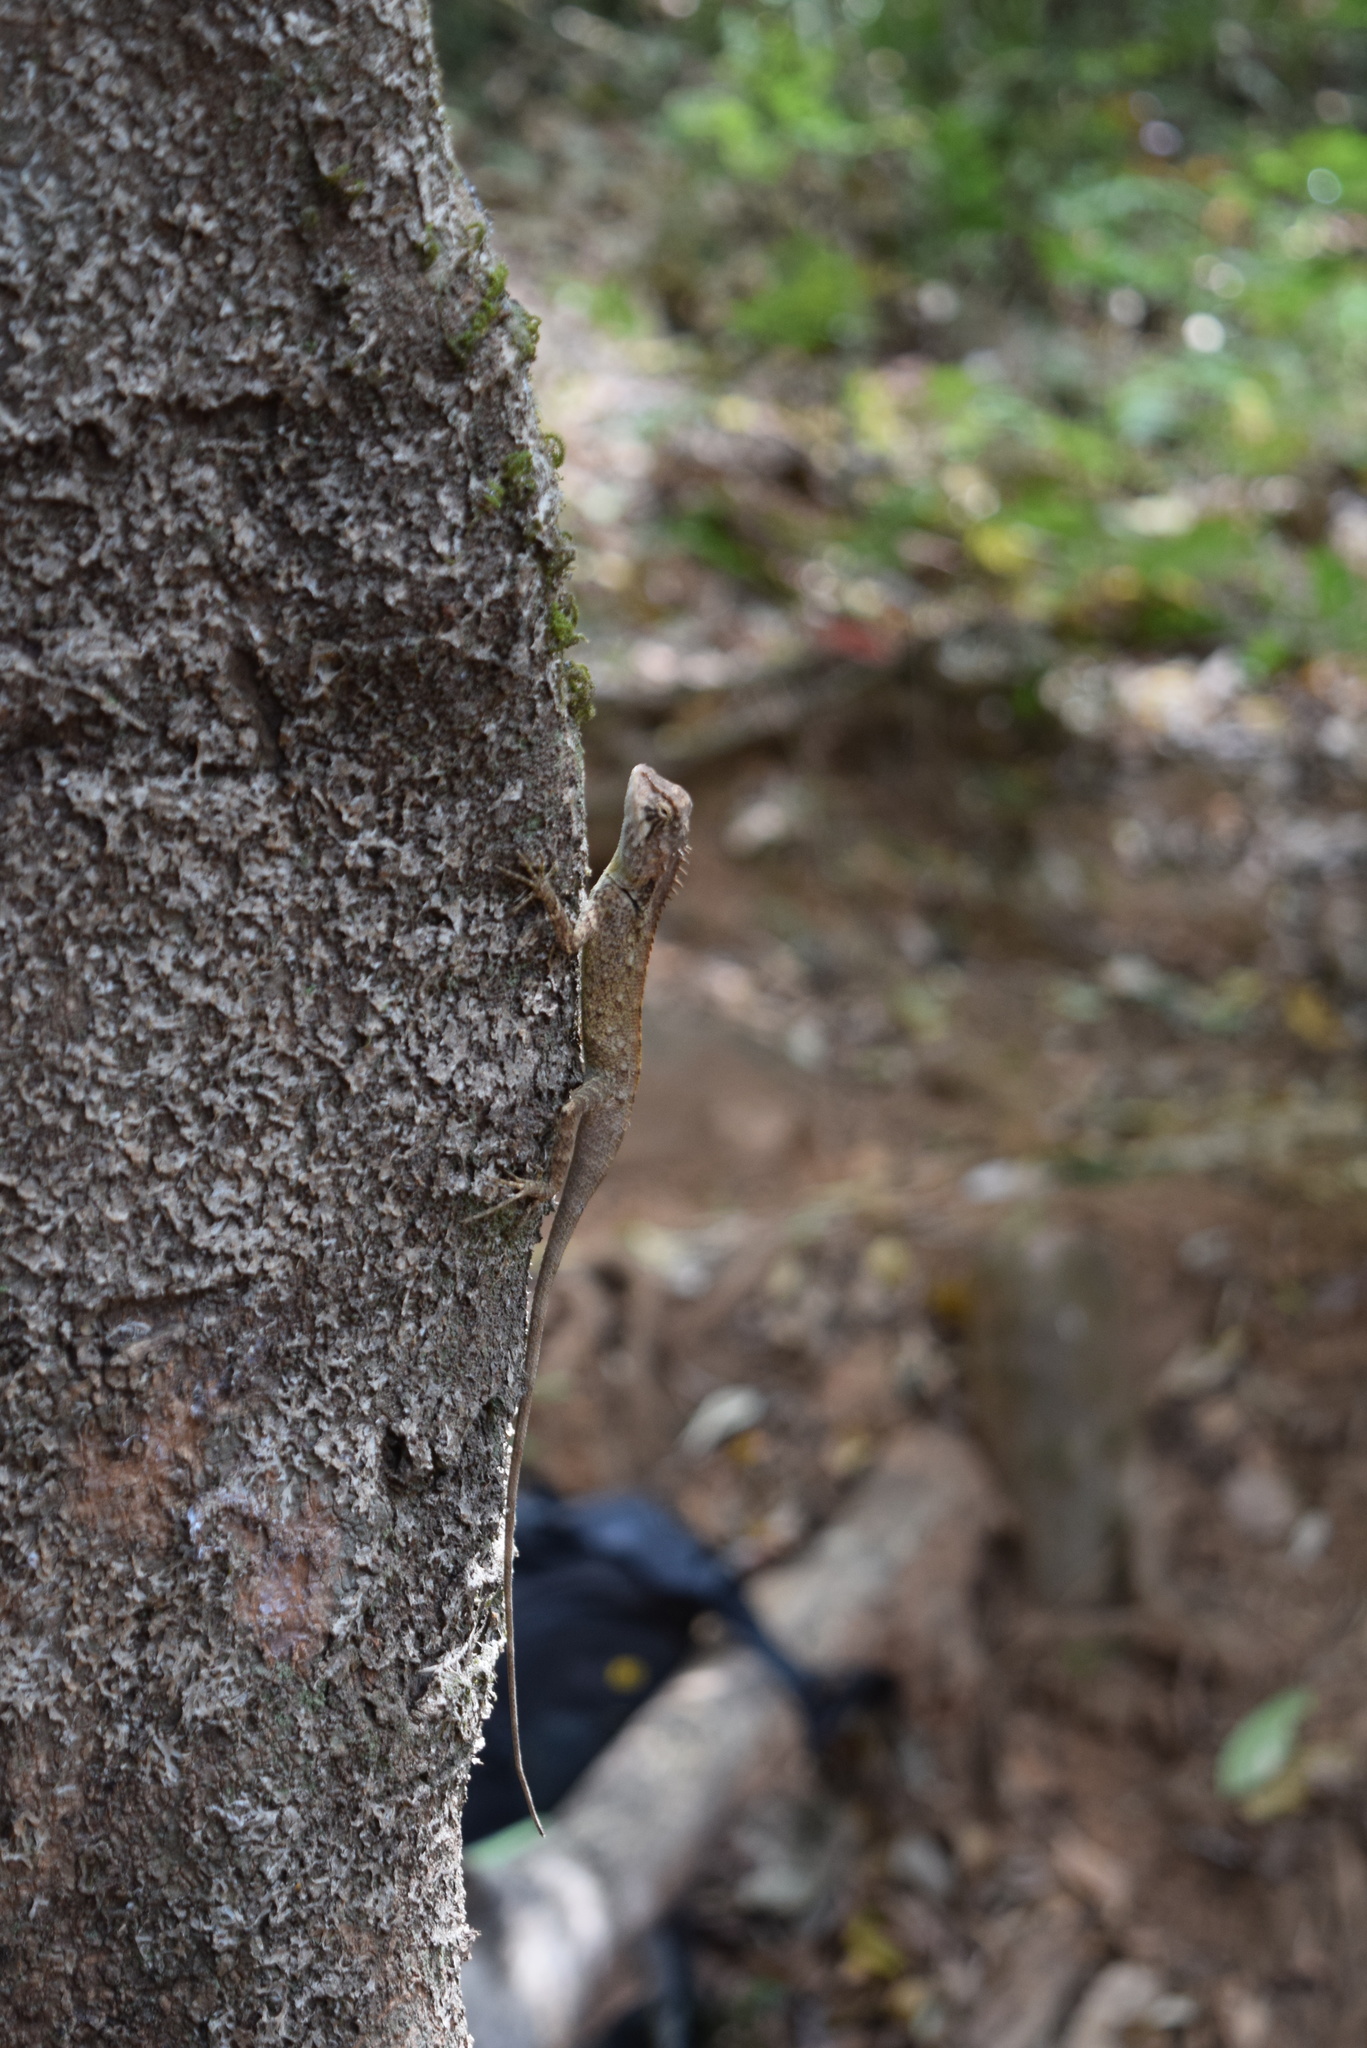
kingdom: Animalia
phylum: Chordata
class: Squamata
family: Agamidae
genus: Monilesaurus
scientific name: Monilesaurus rouxii
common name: Roux's forest lizard
